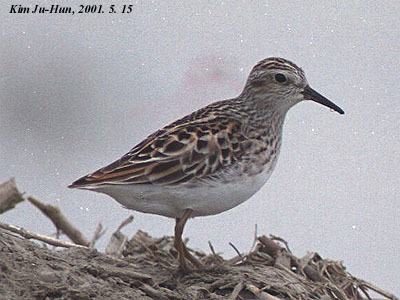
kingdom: Animalia
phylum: Chordata
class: Aves
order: Charadriiformes
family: Scolopacidae
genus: Calidris
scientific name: Calidris subminuta
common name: Long-toed stint
